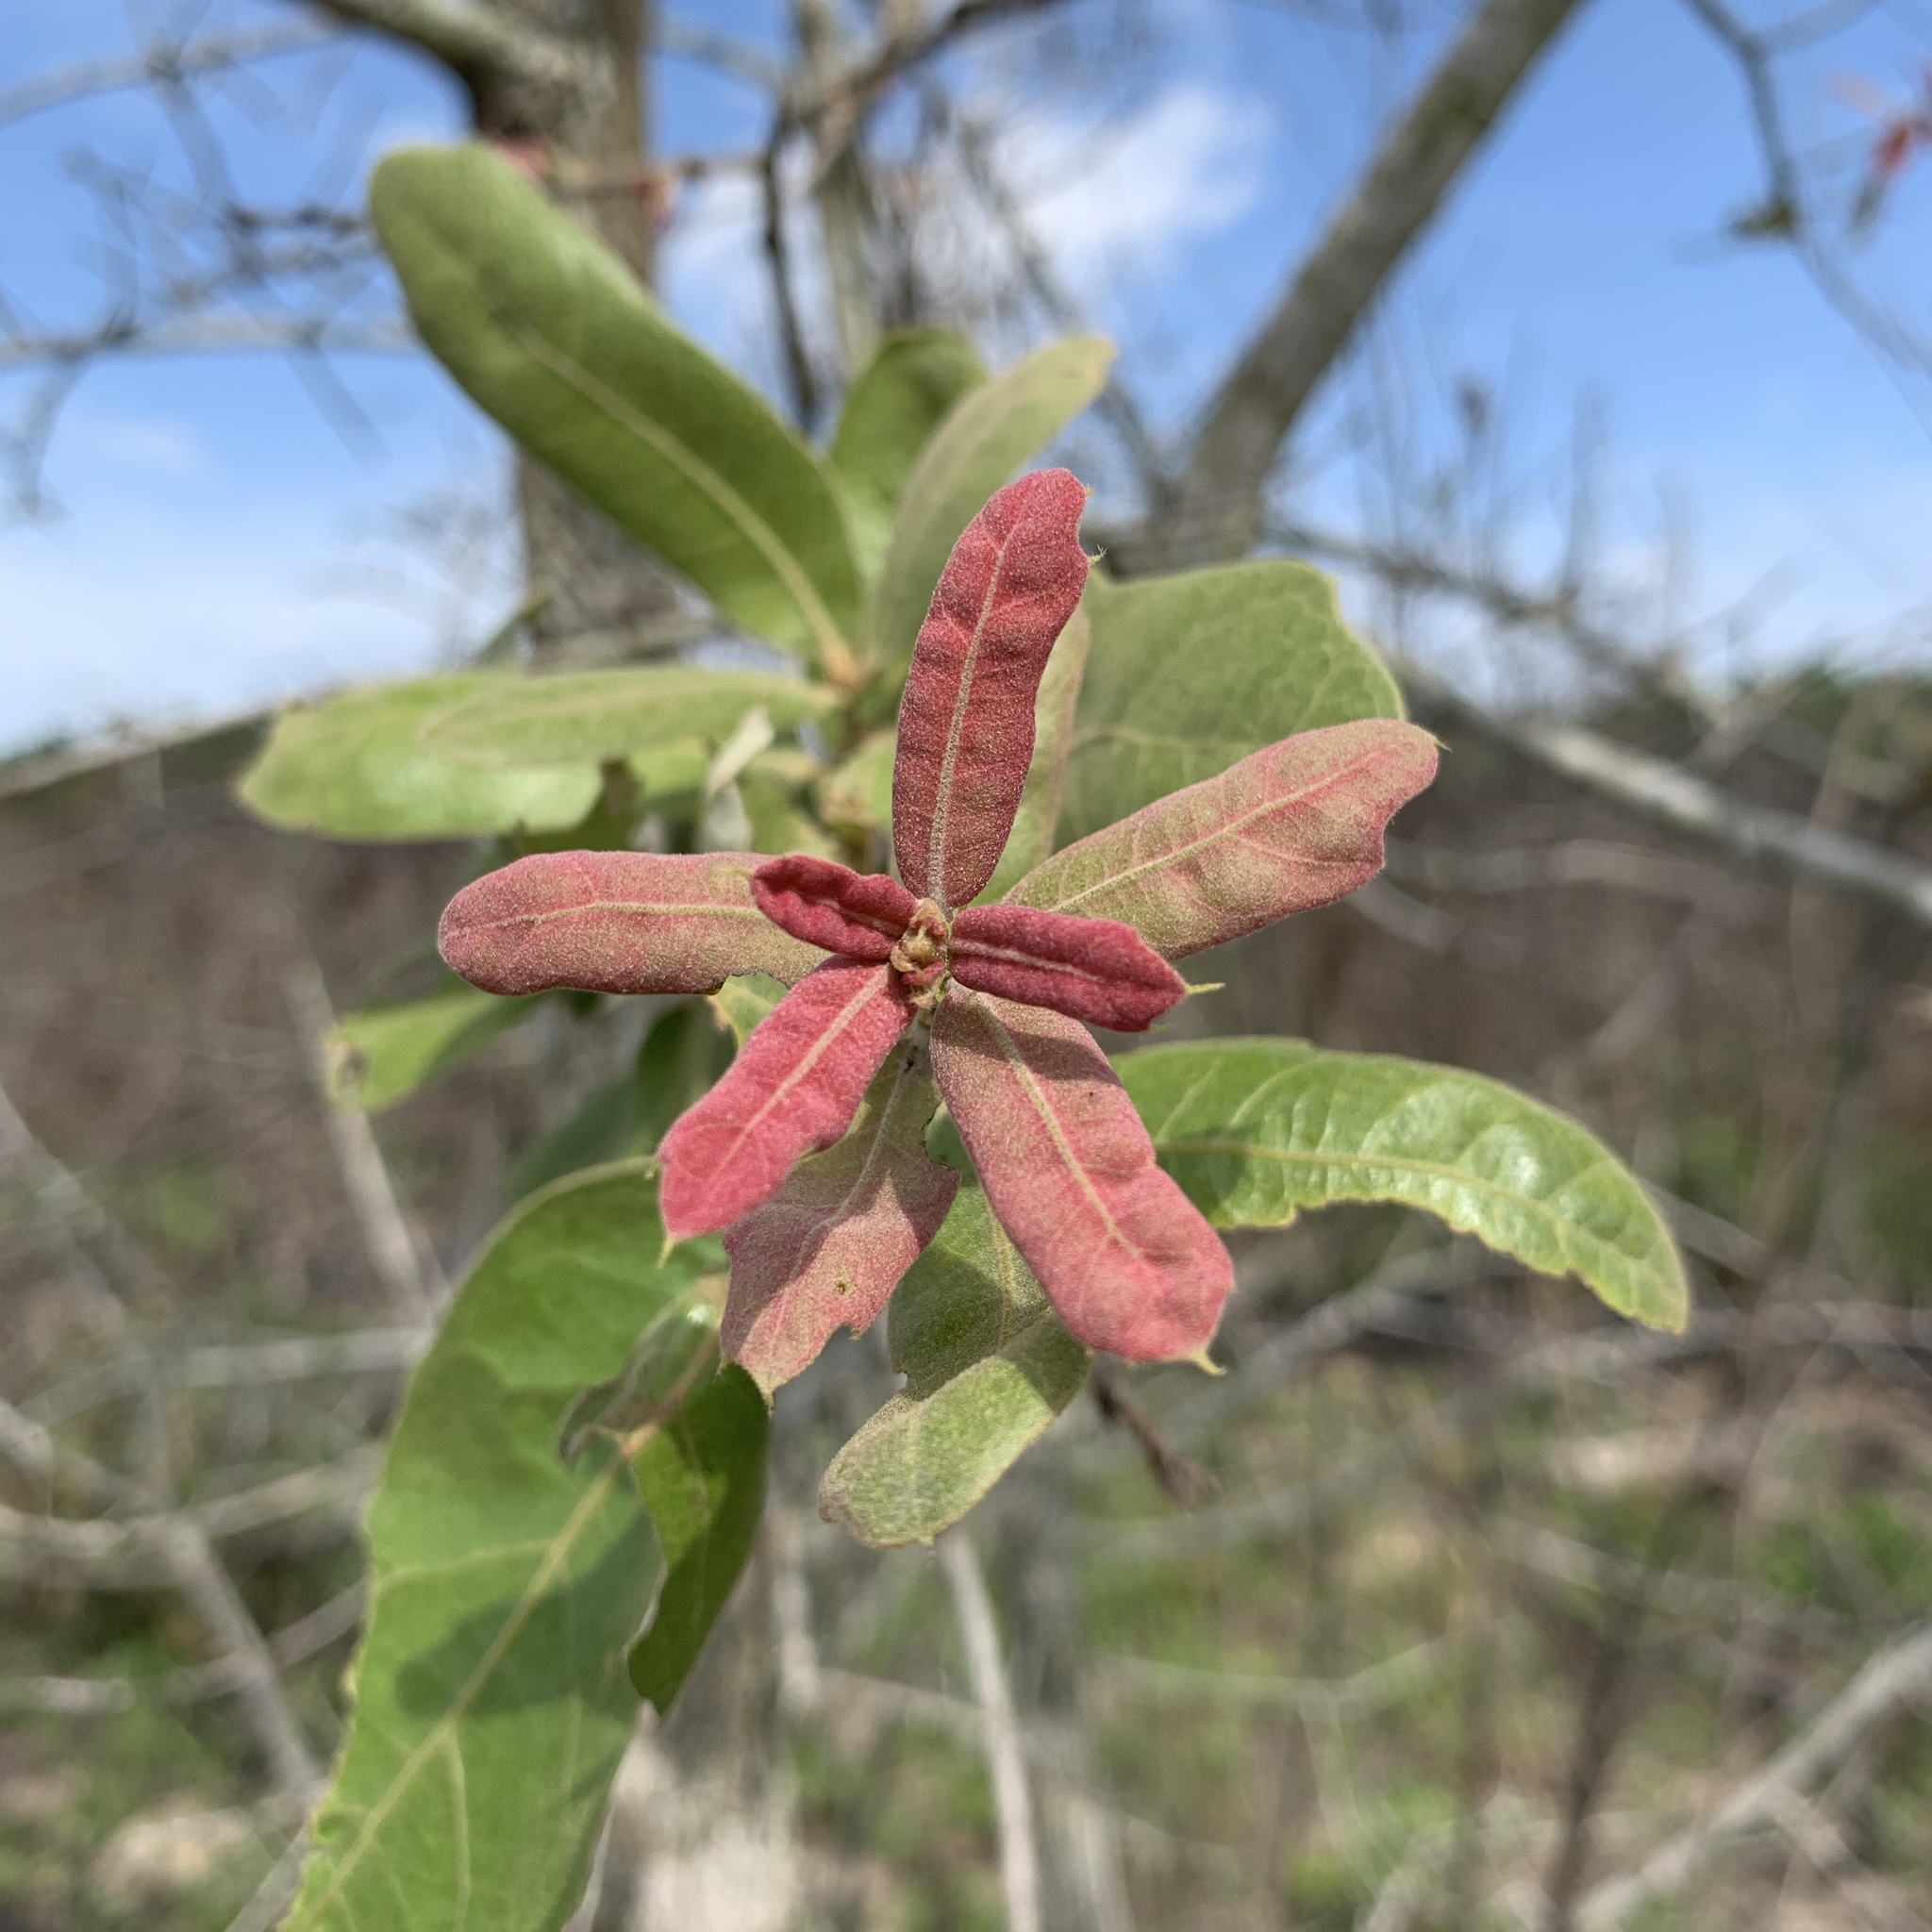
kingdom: Plantae
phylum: Tracheophyta
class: Magnoliopsida
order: Fagales
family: Fagaceae
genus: Quercus
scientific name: Quercus incana
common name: Bluejack oak
